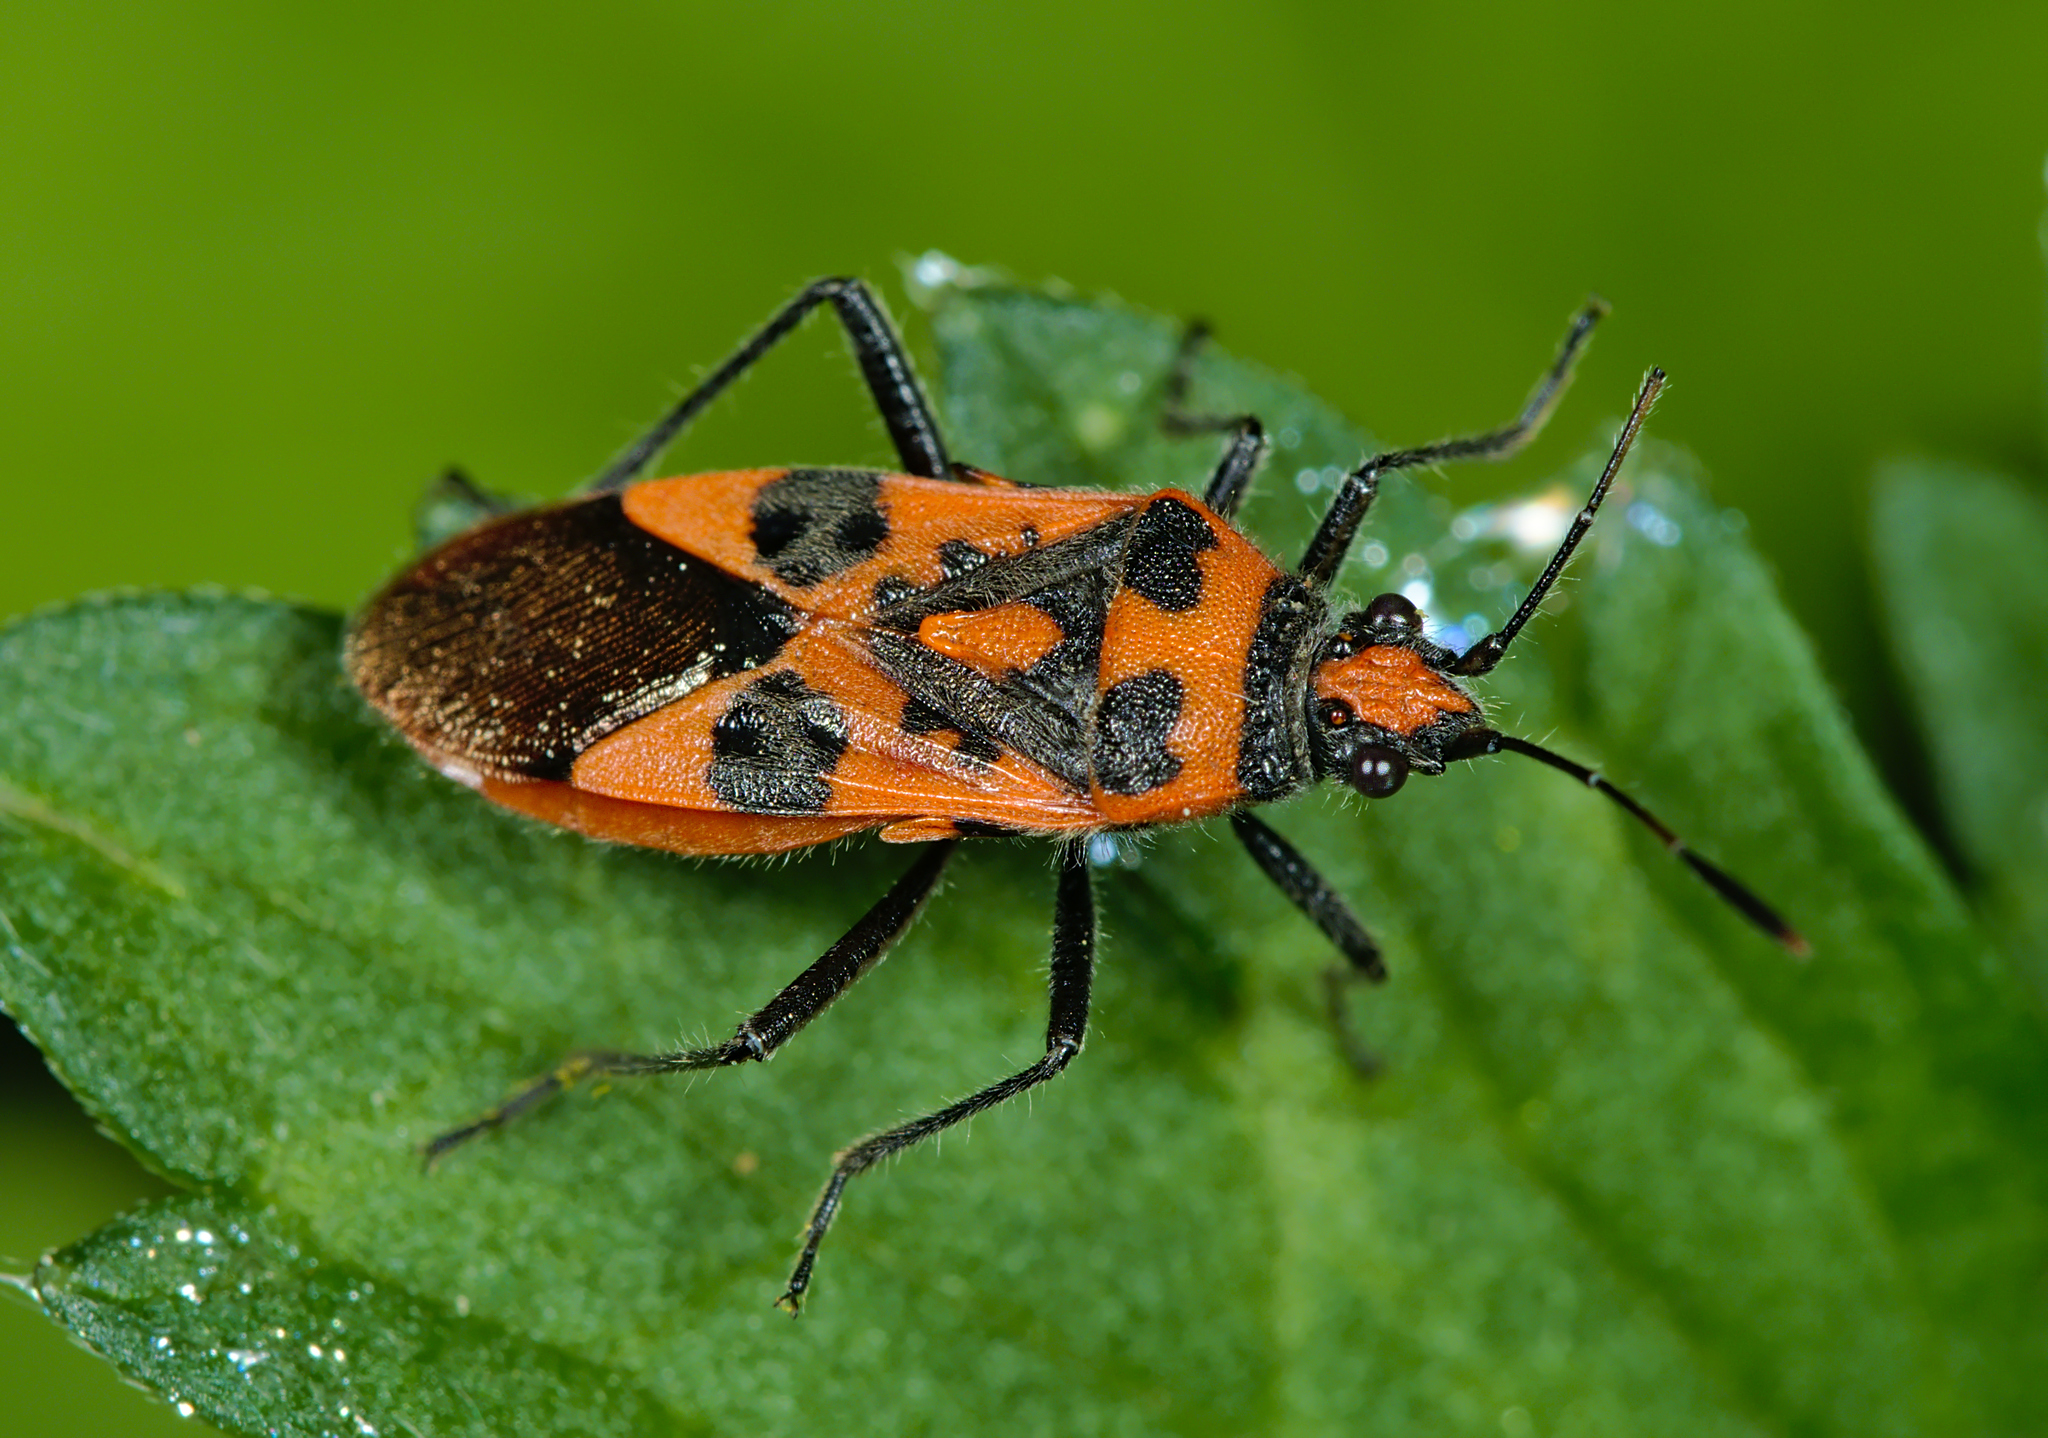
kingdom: Animalia
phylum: Arthropoda
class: Insecta
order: Hemiptera
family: Rhopalidae
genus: Corizus
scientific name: Corizus hyoscyami
